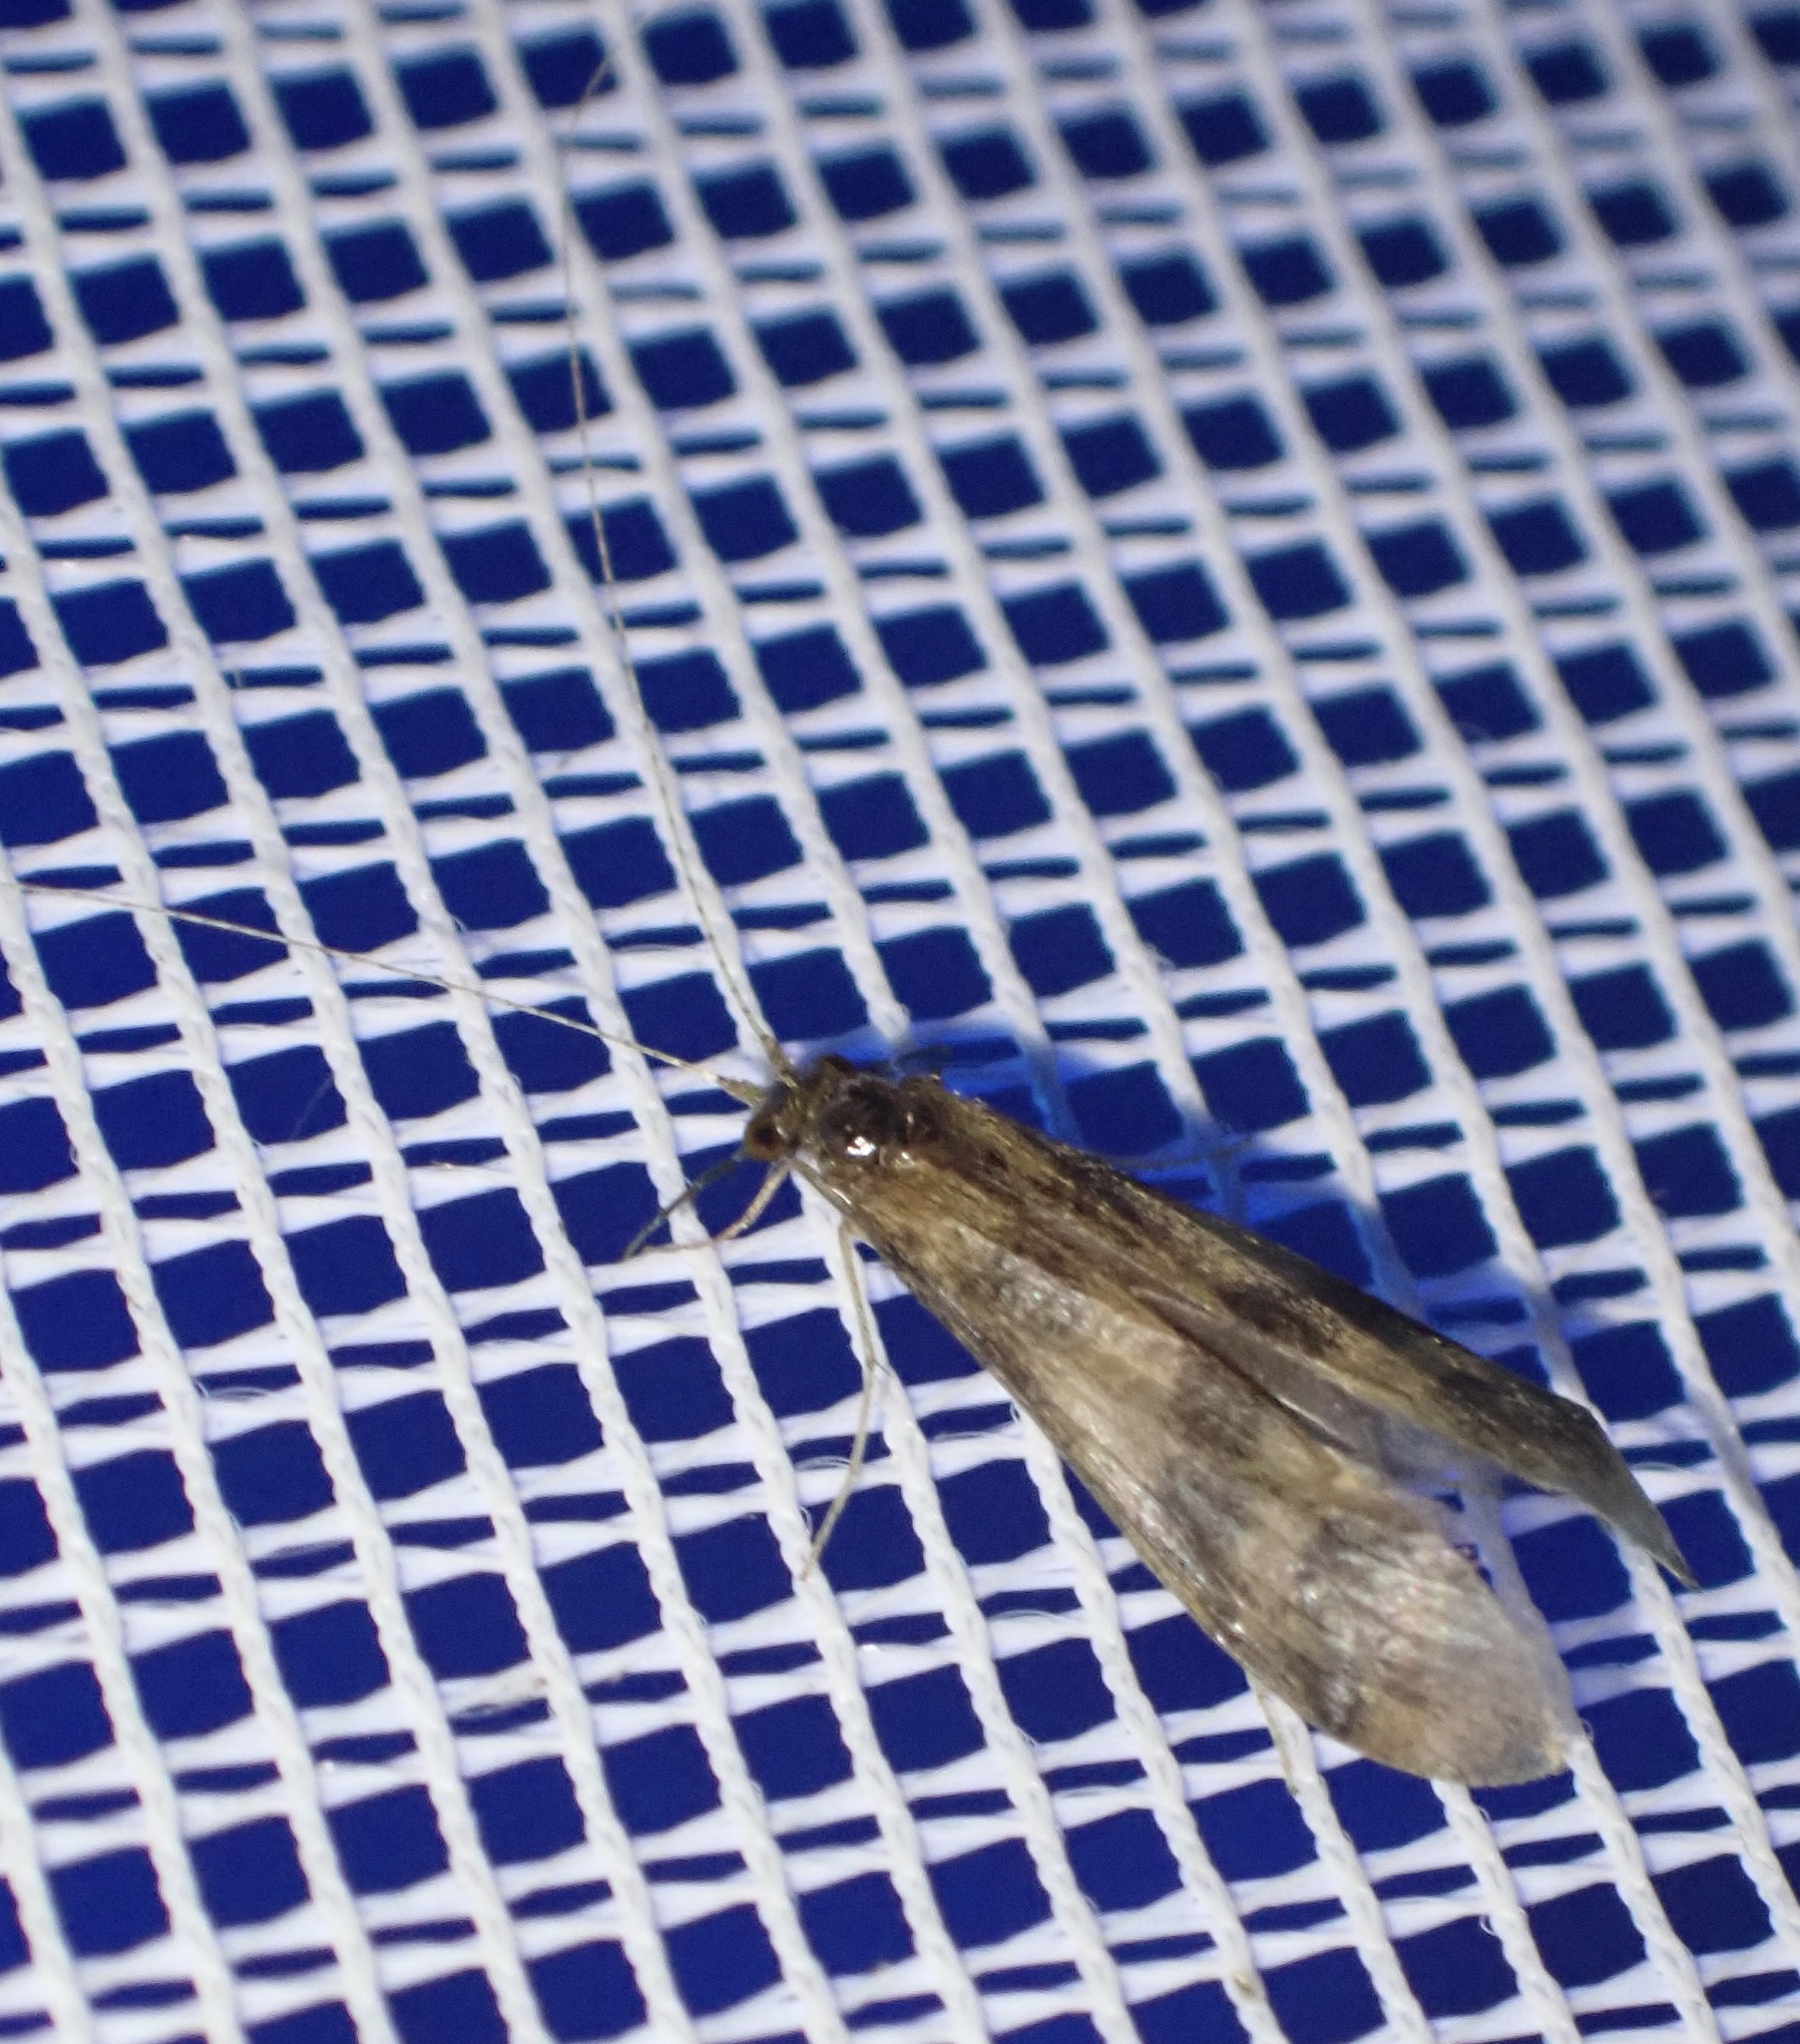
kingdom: Animalia
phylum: Arthropoda
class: Insecta
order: Trichoptera
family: Leptoceridae
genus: Mystacides
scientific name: Mystacides longicornis
